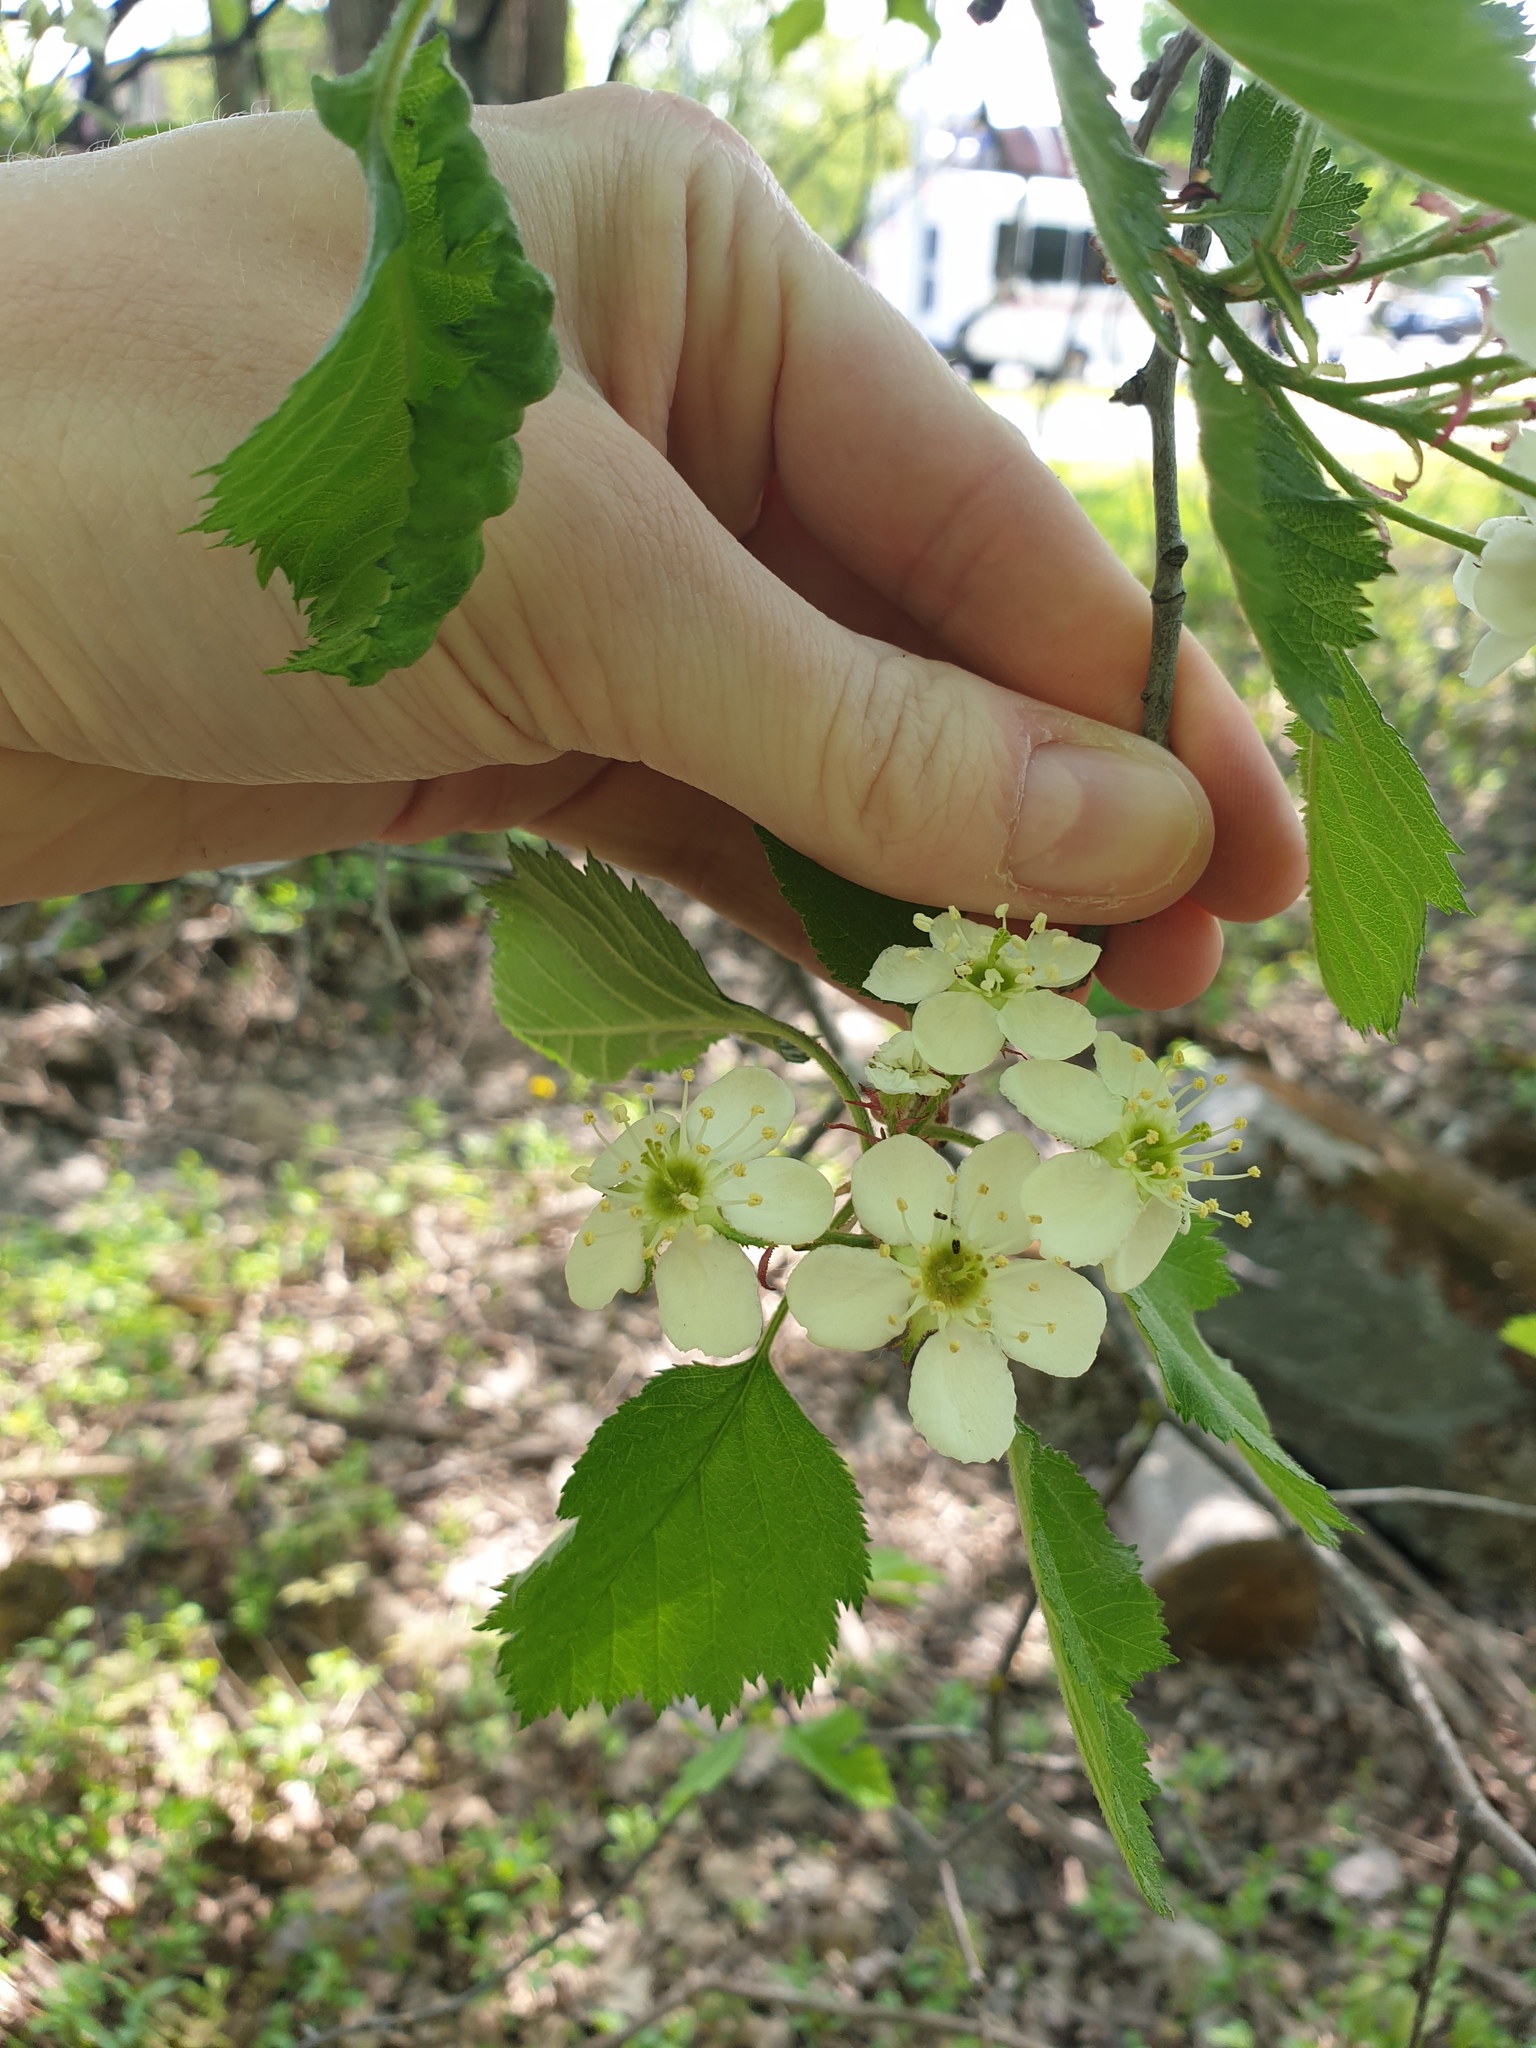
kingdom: Plantae
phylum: Tracheophyta
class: Magnoliopsida
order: Rosales
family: Rosaceae
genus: Crataegus
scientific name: Crataegus submollis
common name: Hairy cockspurthorn
